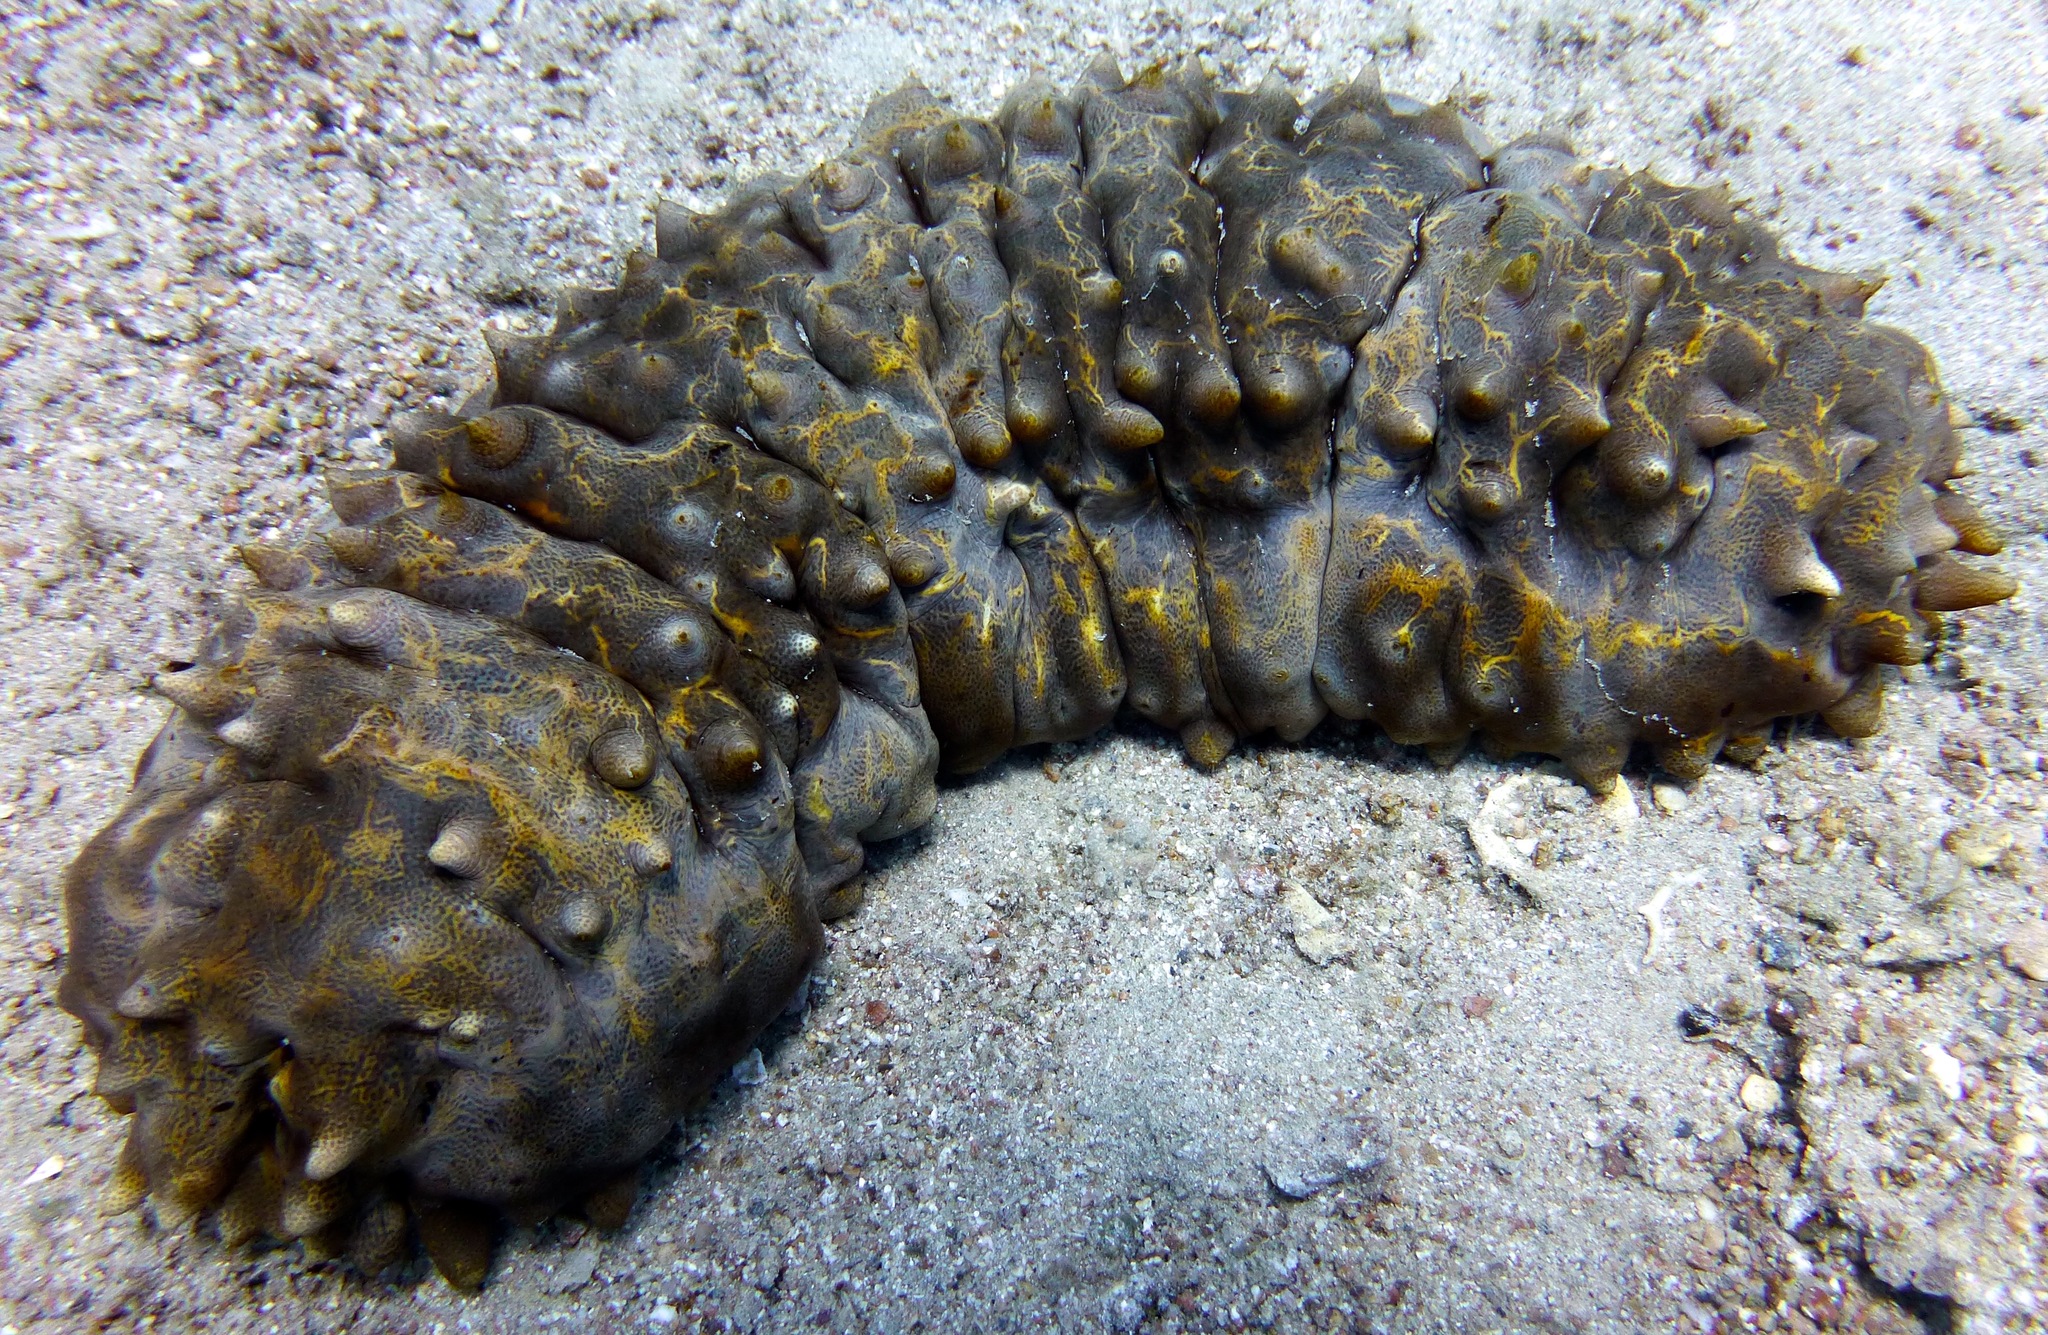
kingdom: Animalia
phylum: Echinodermata
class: Holothuroidea
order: Synallactida
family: Stichopodidae
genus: Stichopus
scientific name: Stichopus pseudohorrens
